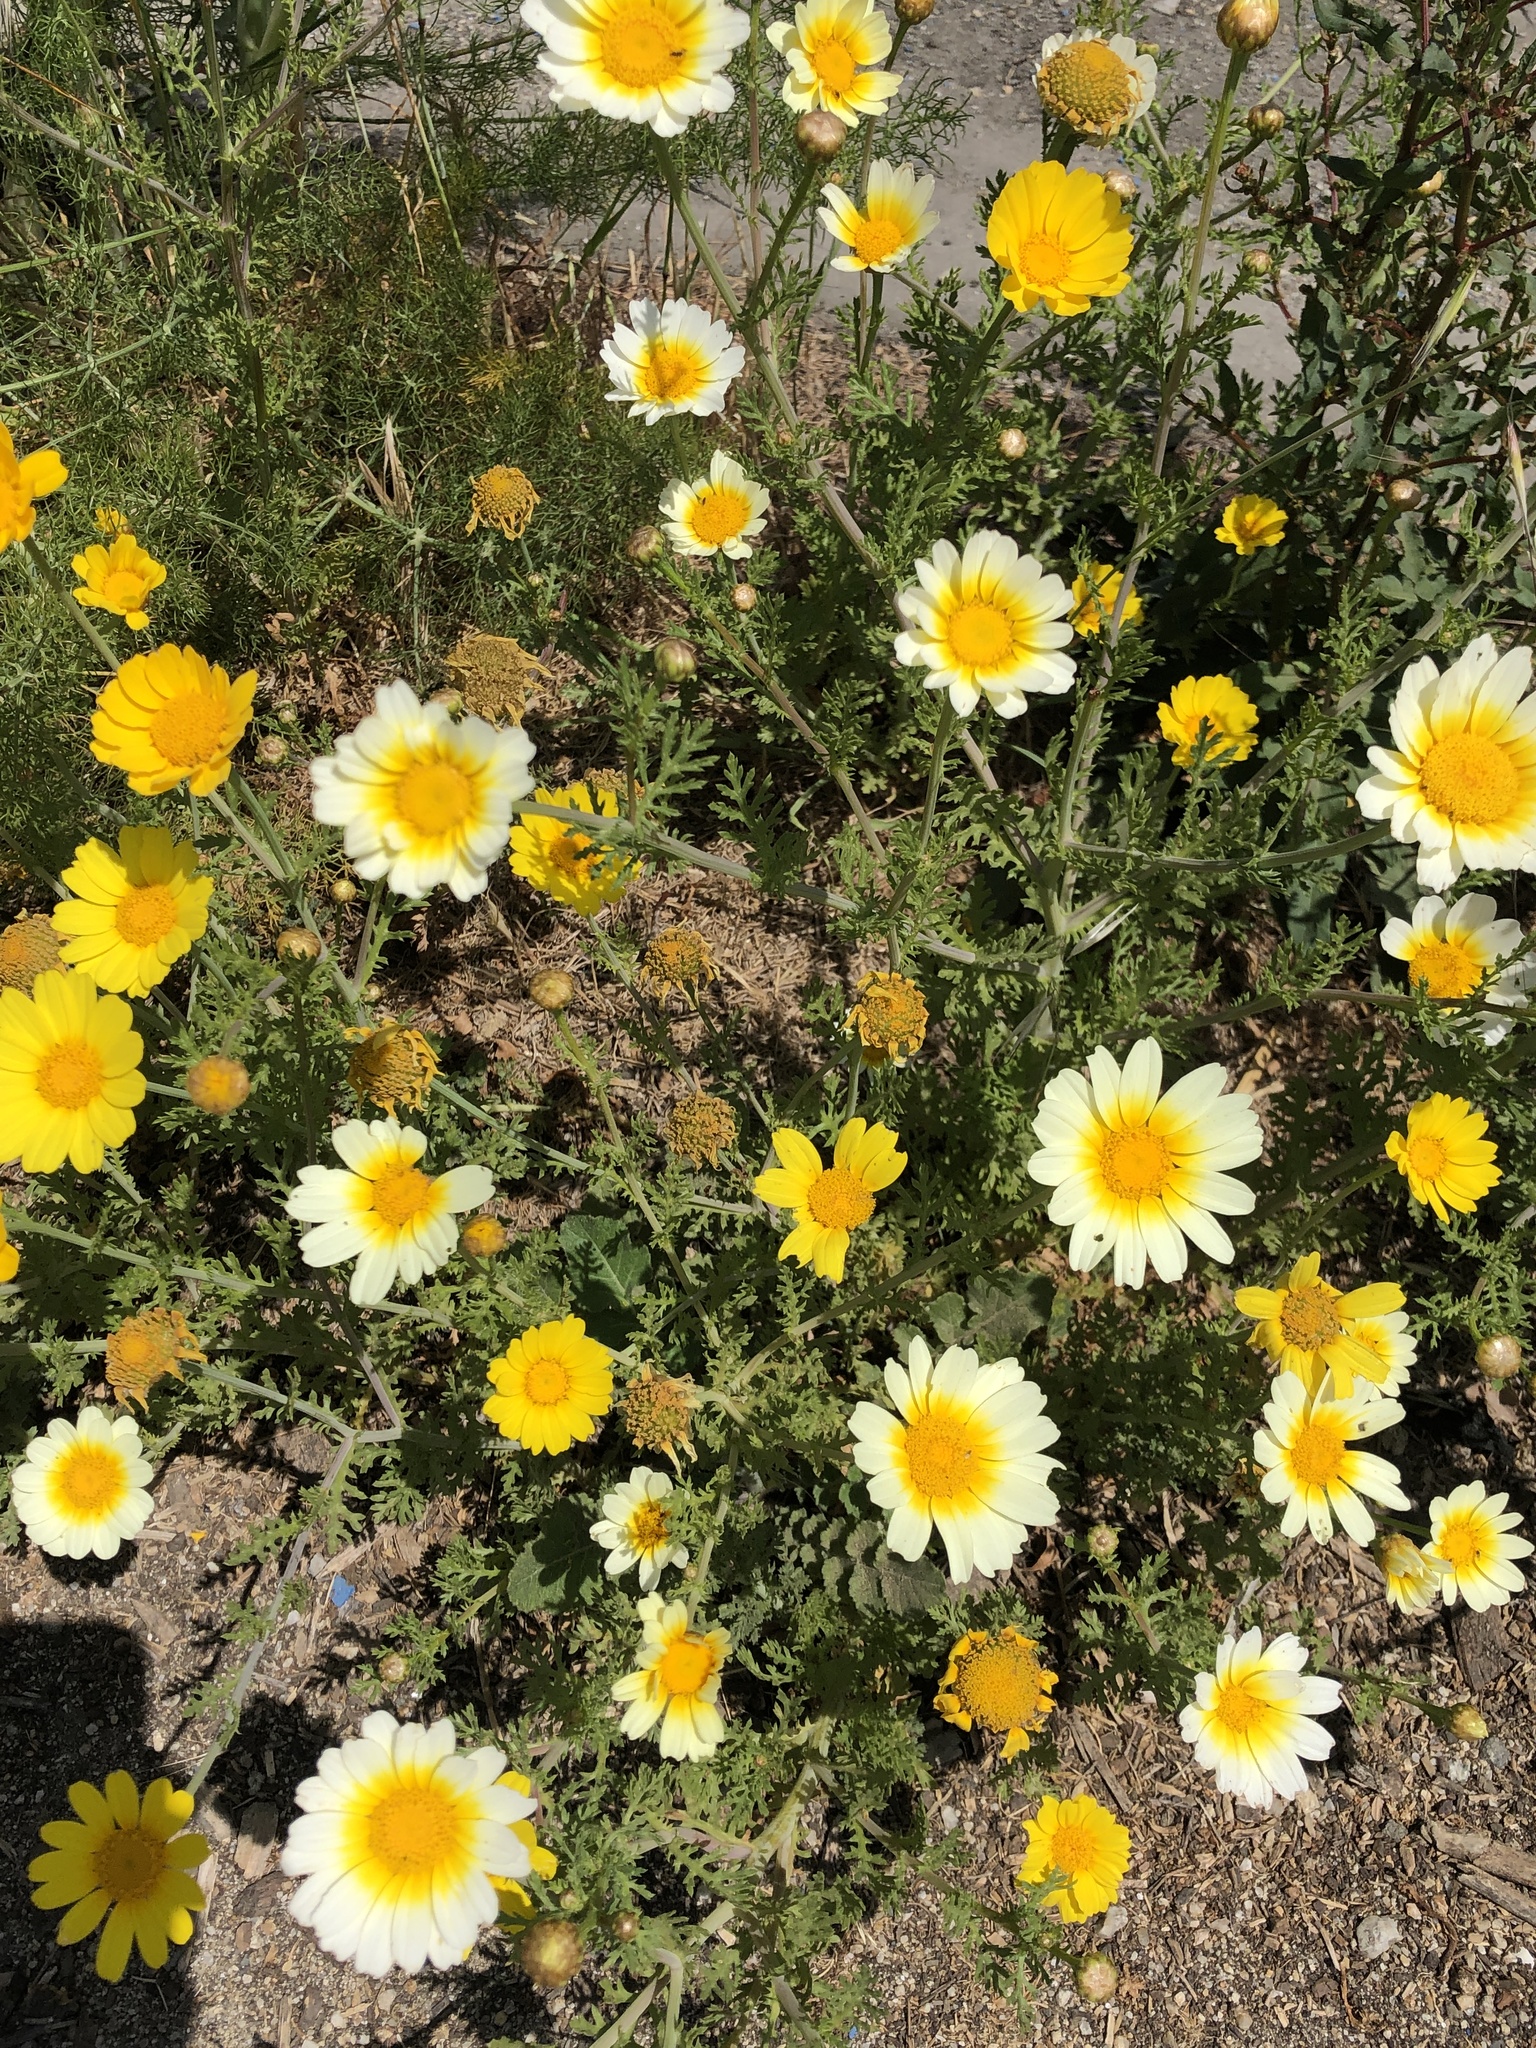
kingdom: Plantae
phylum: Tracheophyta
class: Magnoliopsida
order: Asterales
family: Asteraceae
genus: Glebionis
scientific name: Glebionis coronaria
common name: Crowndaisy
